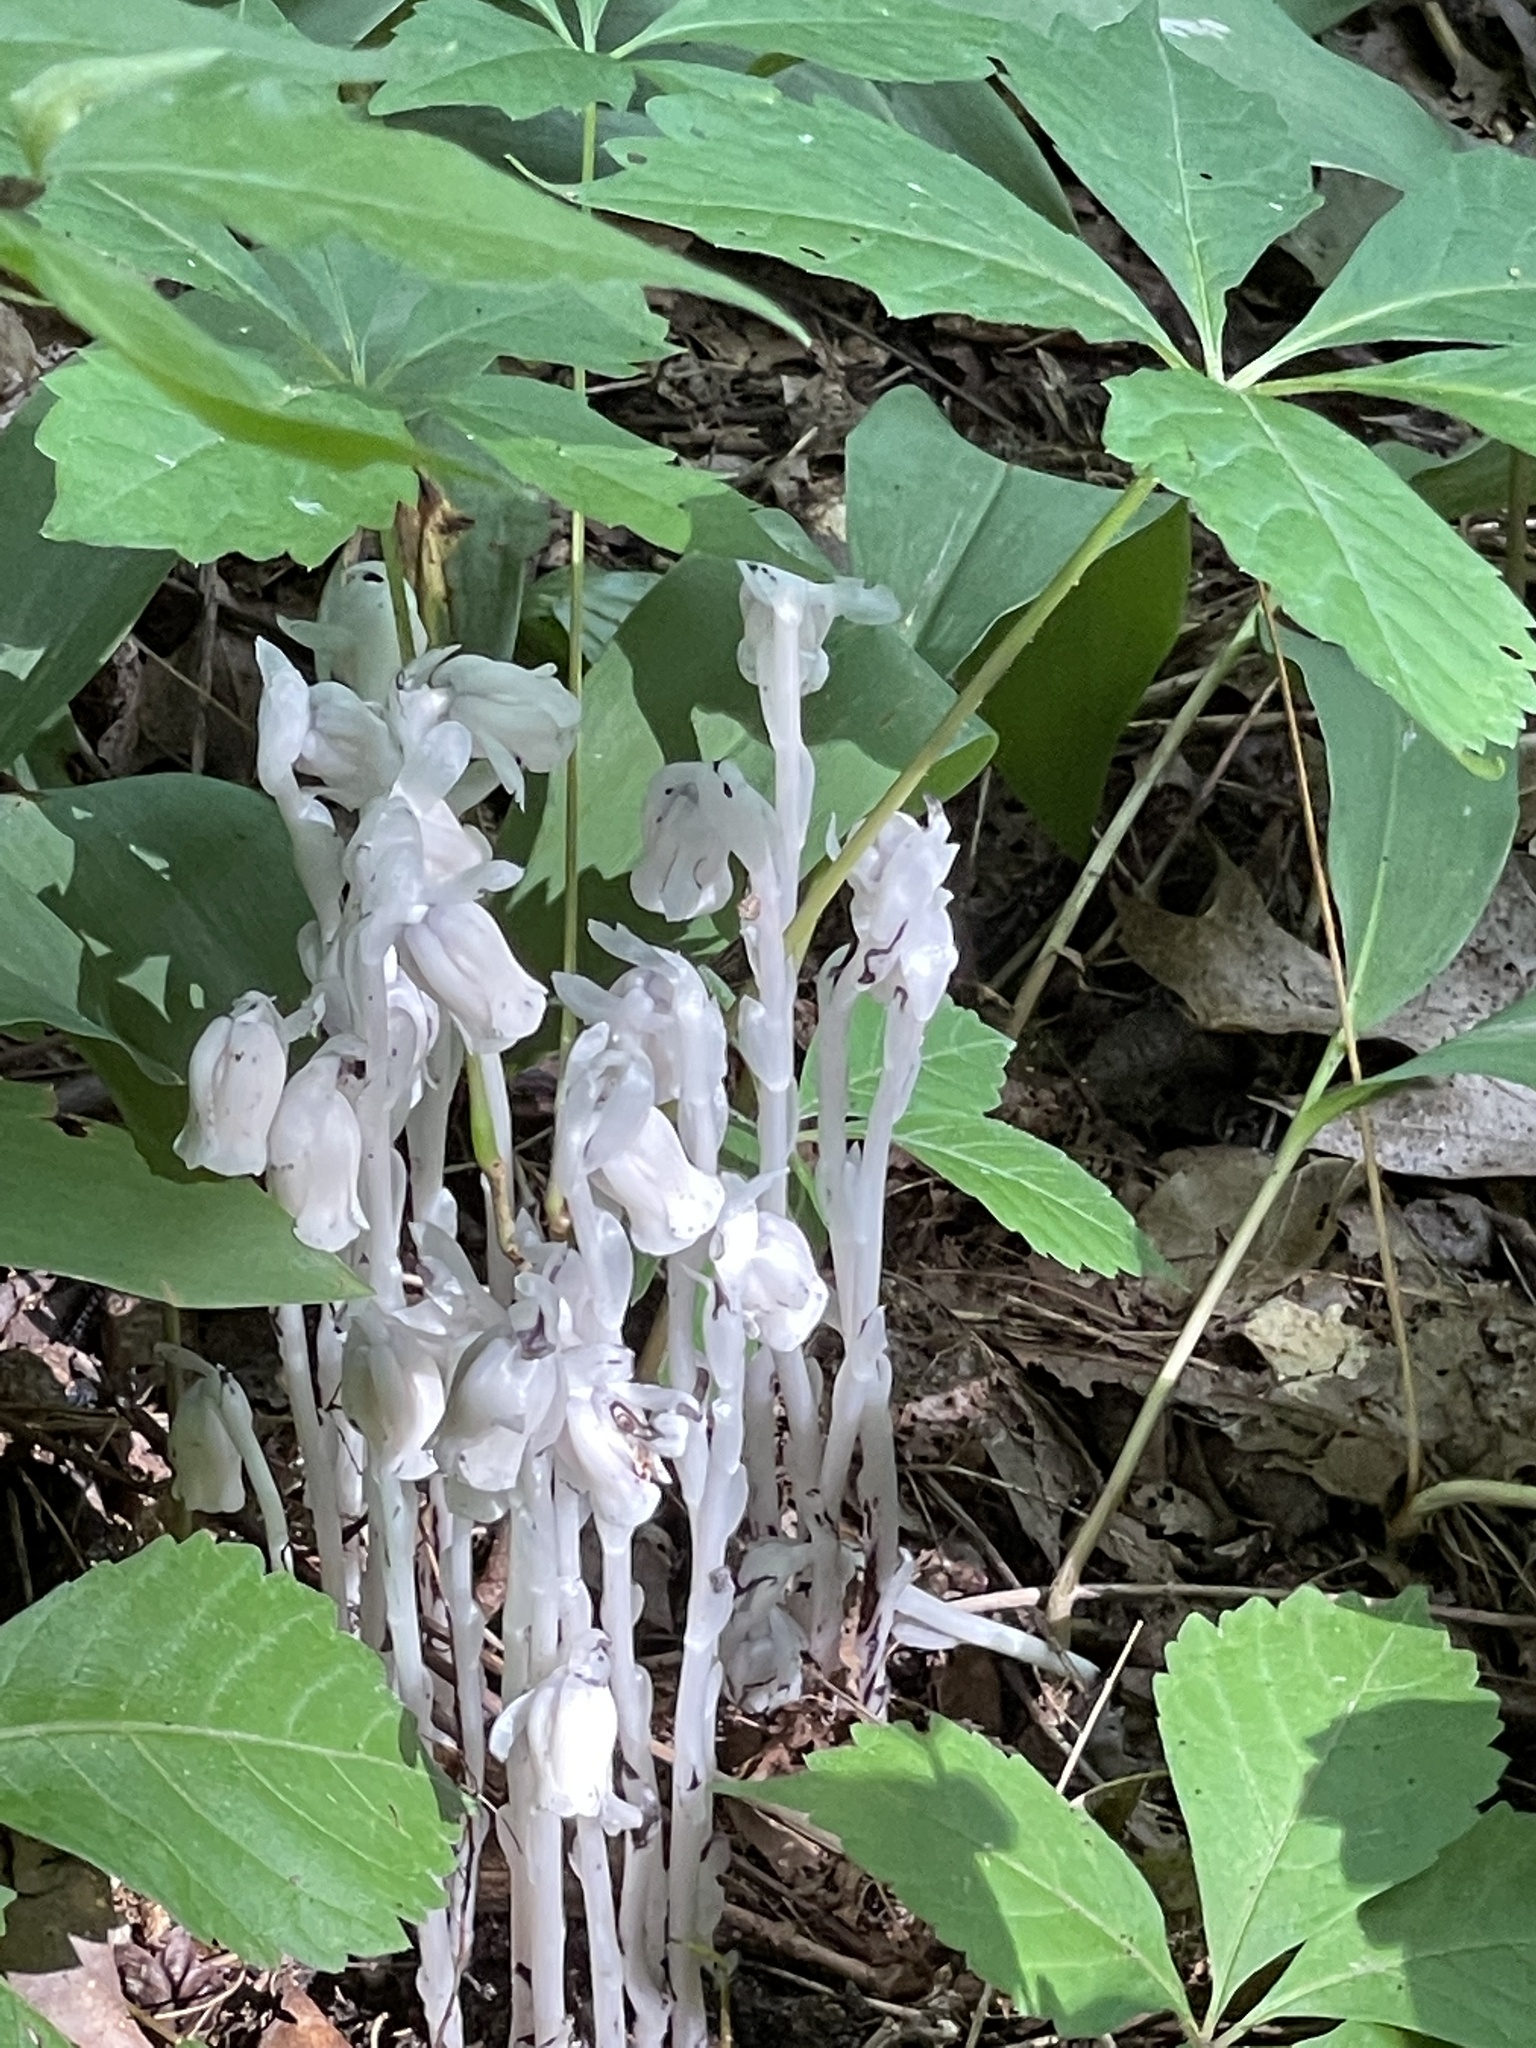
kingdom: Plantae
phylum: Tracheophyta
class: Magnoliopsida
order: Ericales
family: Ericaceae
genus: Monotropa
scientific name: Monotropa uniflora
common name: Convulsion root
